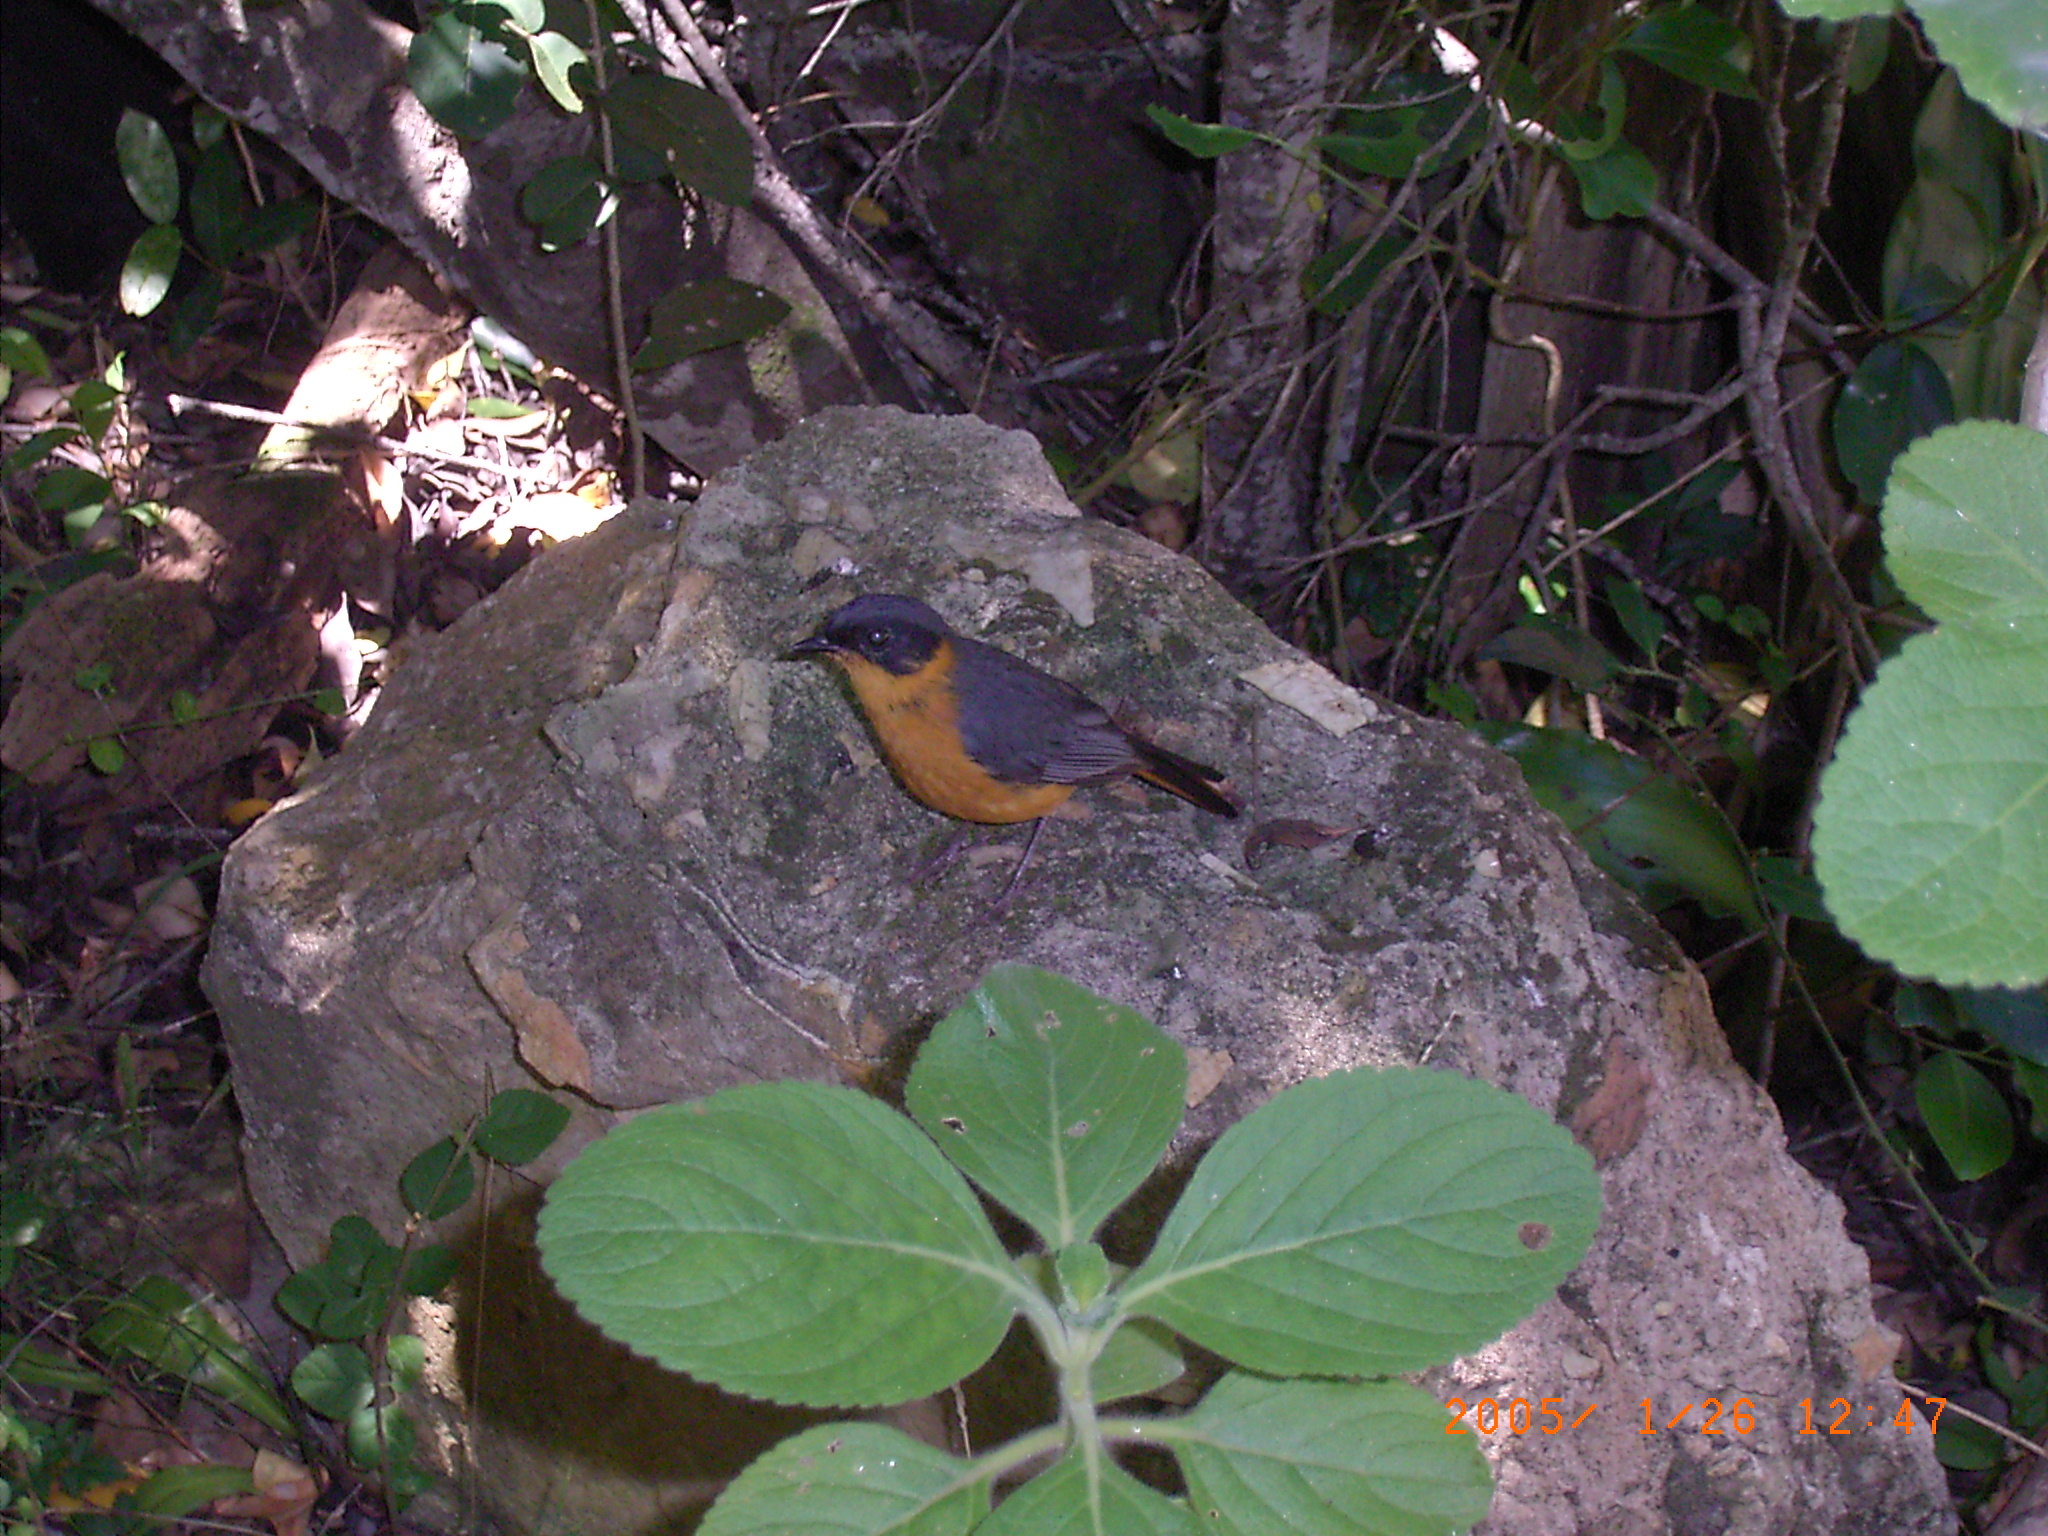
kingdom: Animalia
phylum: Chordata
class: Aves
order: Passeriformes
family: Muscicapidae
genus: Cossypha
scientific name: Cossypha dichroa
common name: Chorister robin-chat
